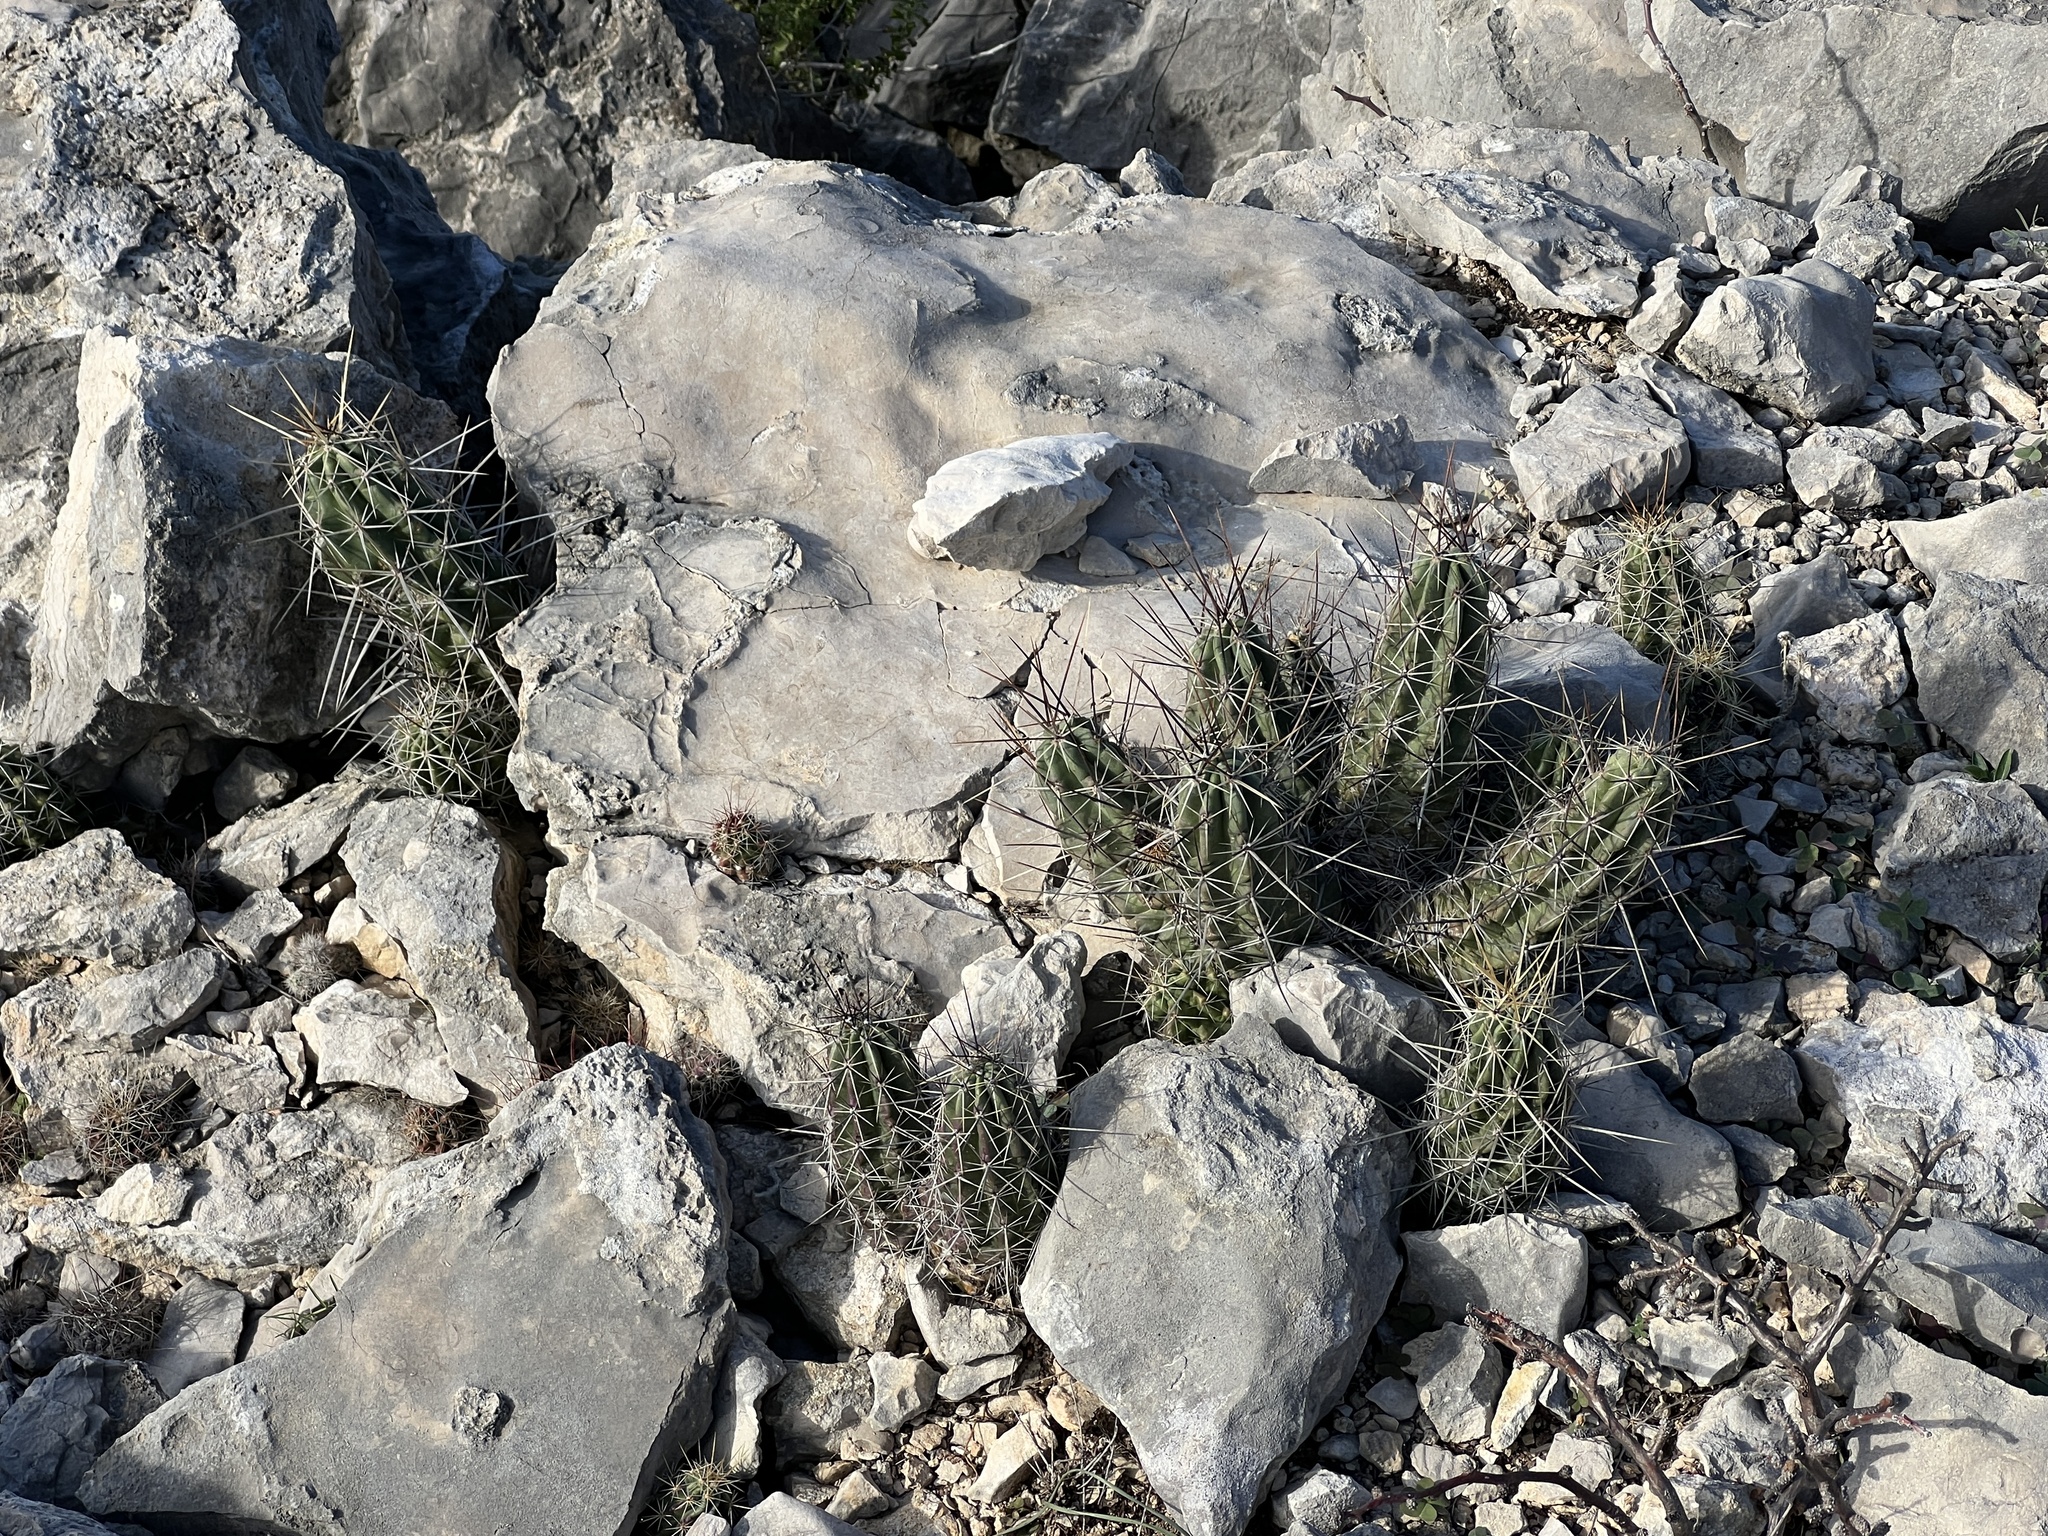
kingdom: Plantae
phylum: Tracheophyta
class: Magnoliopsida
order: Caryophyllales
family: Cactaceae
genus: Echinocereus
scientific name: Echinocereus enneacanthus
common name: Pitaya
